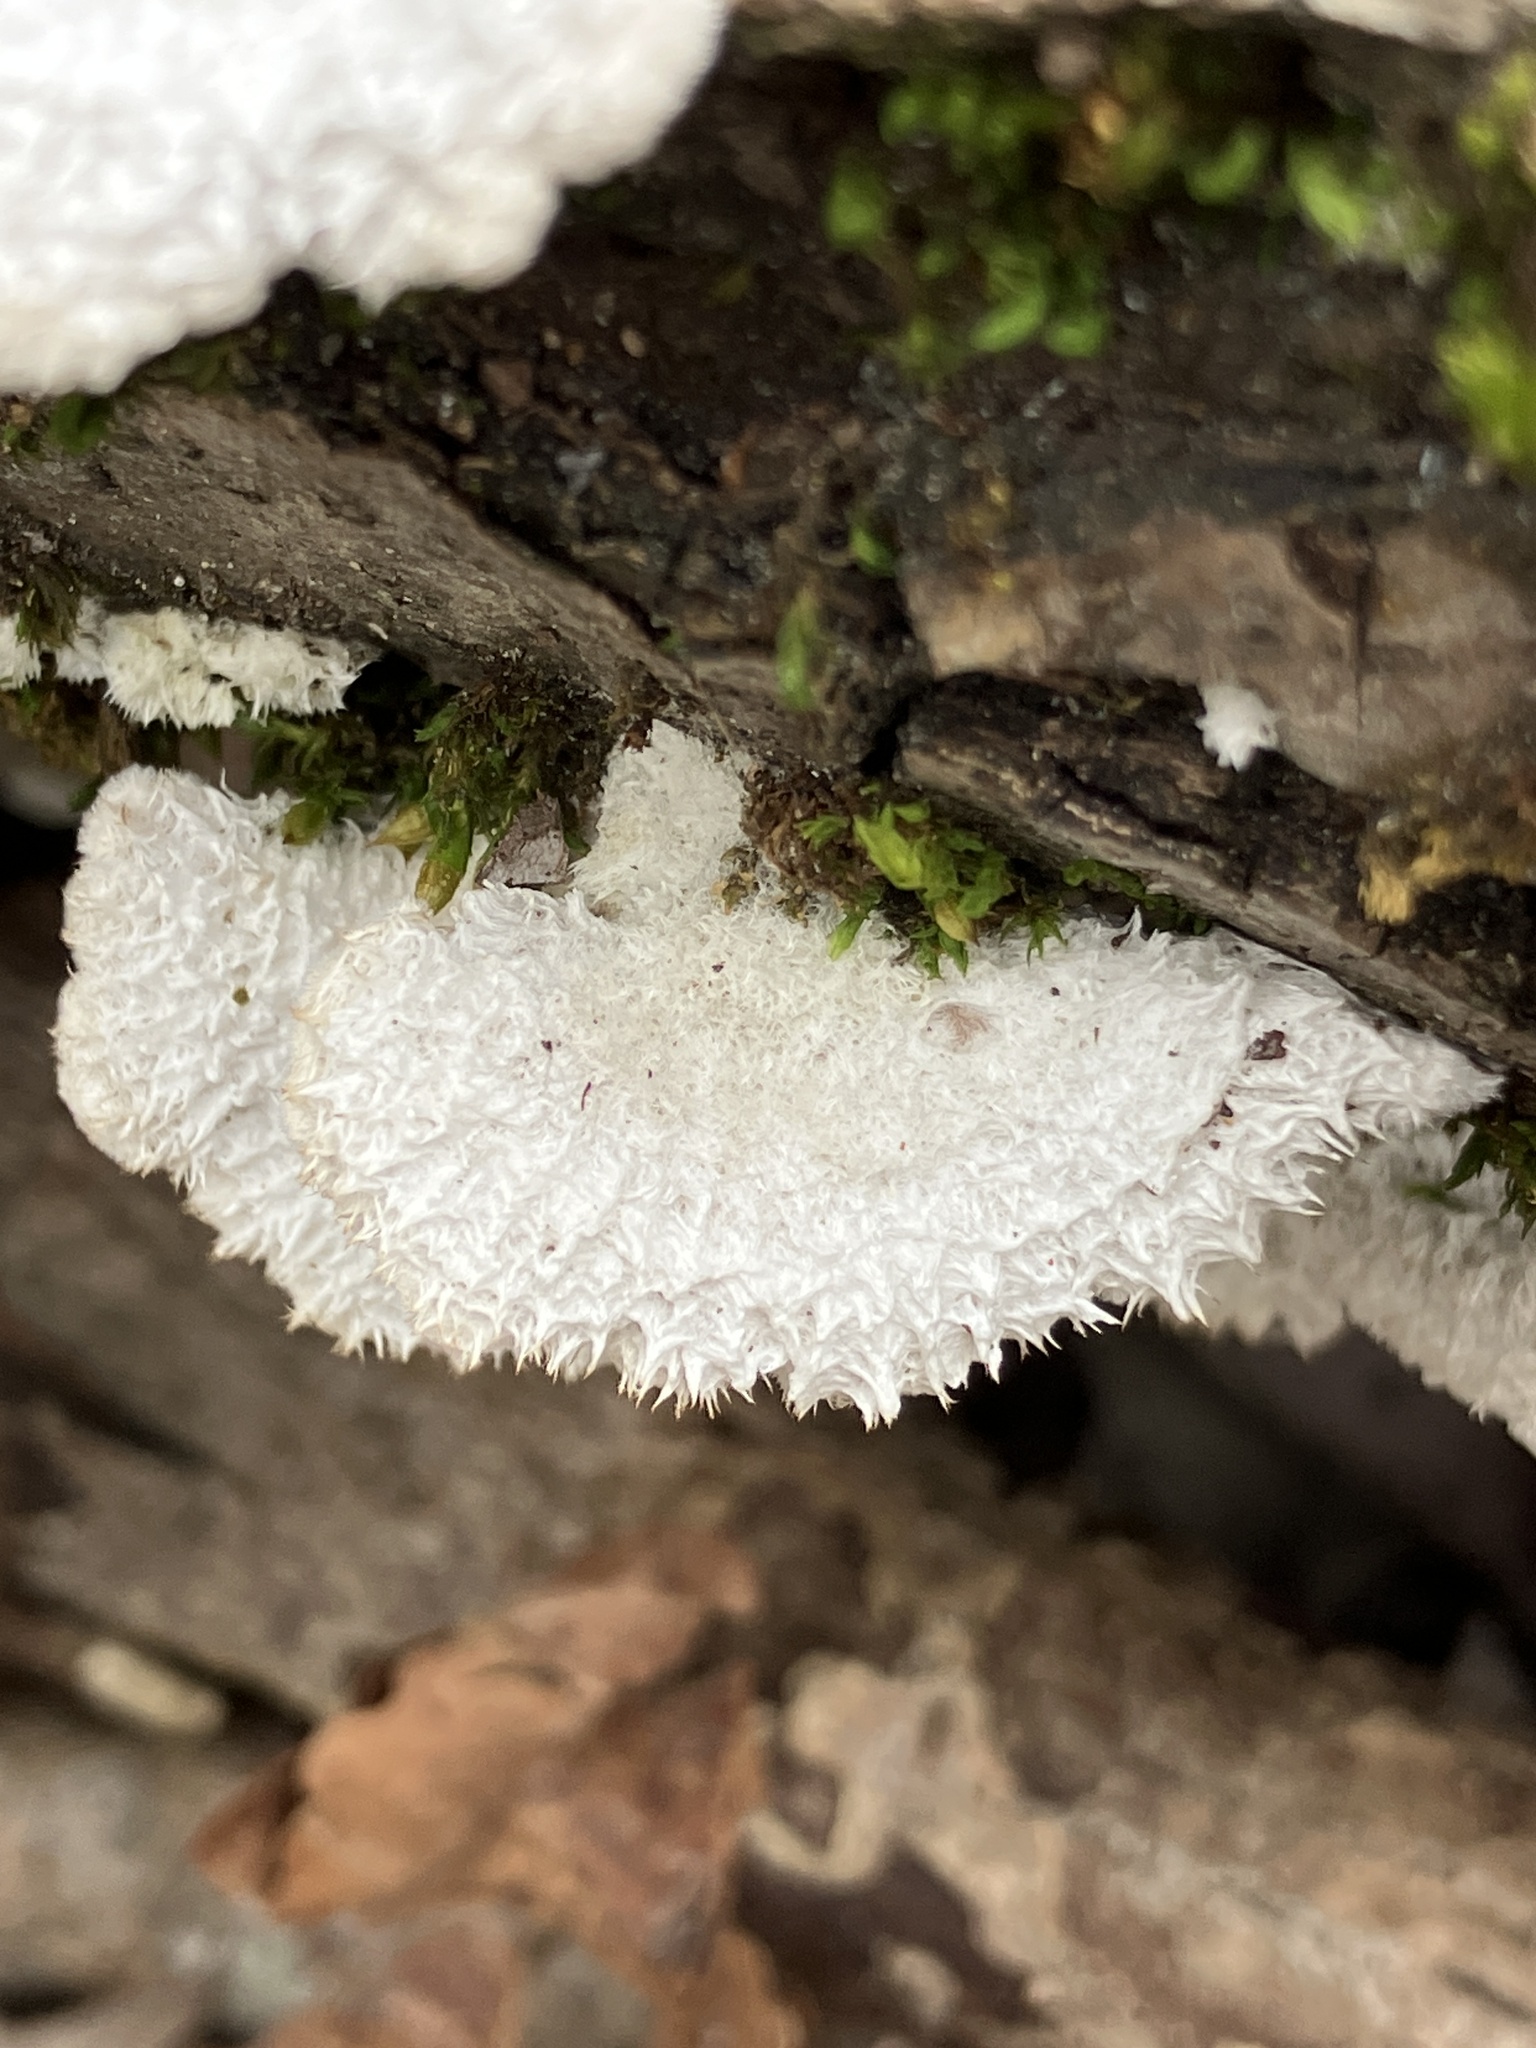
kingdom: Fungi
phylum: Basidiomycota
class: Agaricomycetes
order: Agaricales
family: Schizophyllaceae
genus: Schizophyllum
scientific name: Schizophyllum commune
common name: Common porecrust
